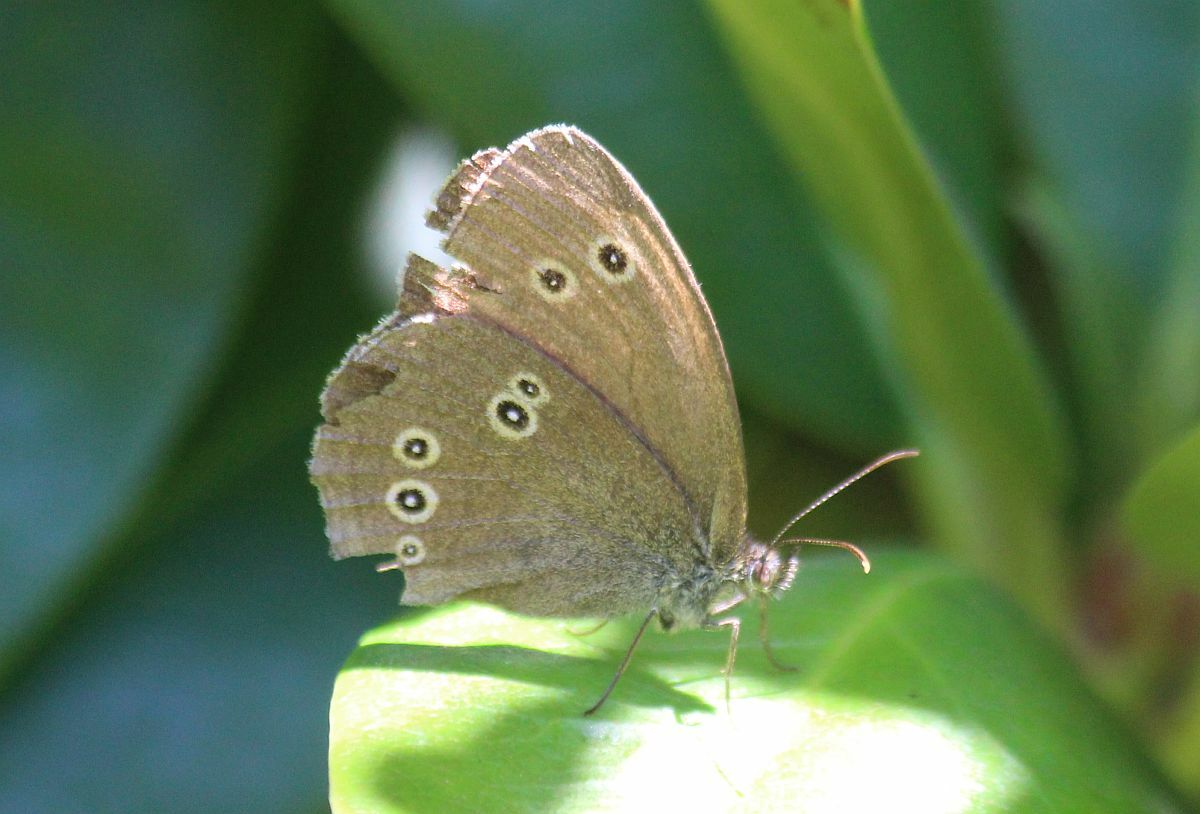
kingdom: Animalia
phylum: Arthropoda
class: Insecta
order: Lepidoptera
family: Nymphalidae
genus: Aphantopus
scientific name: Aphantopus hyperantus
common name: Ringlet
